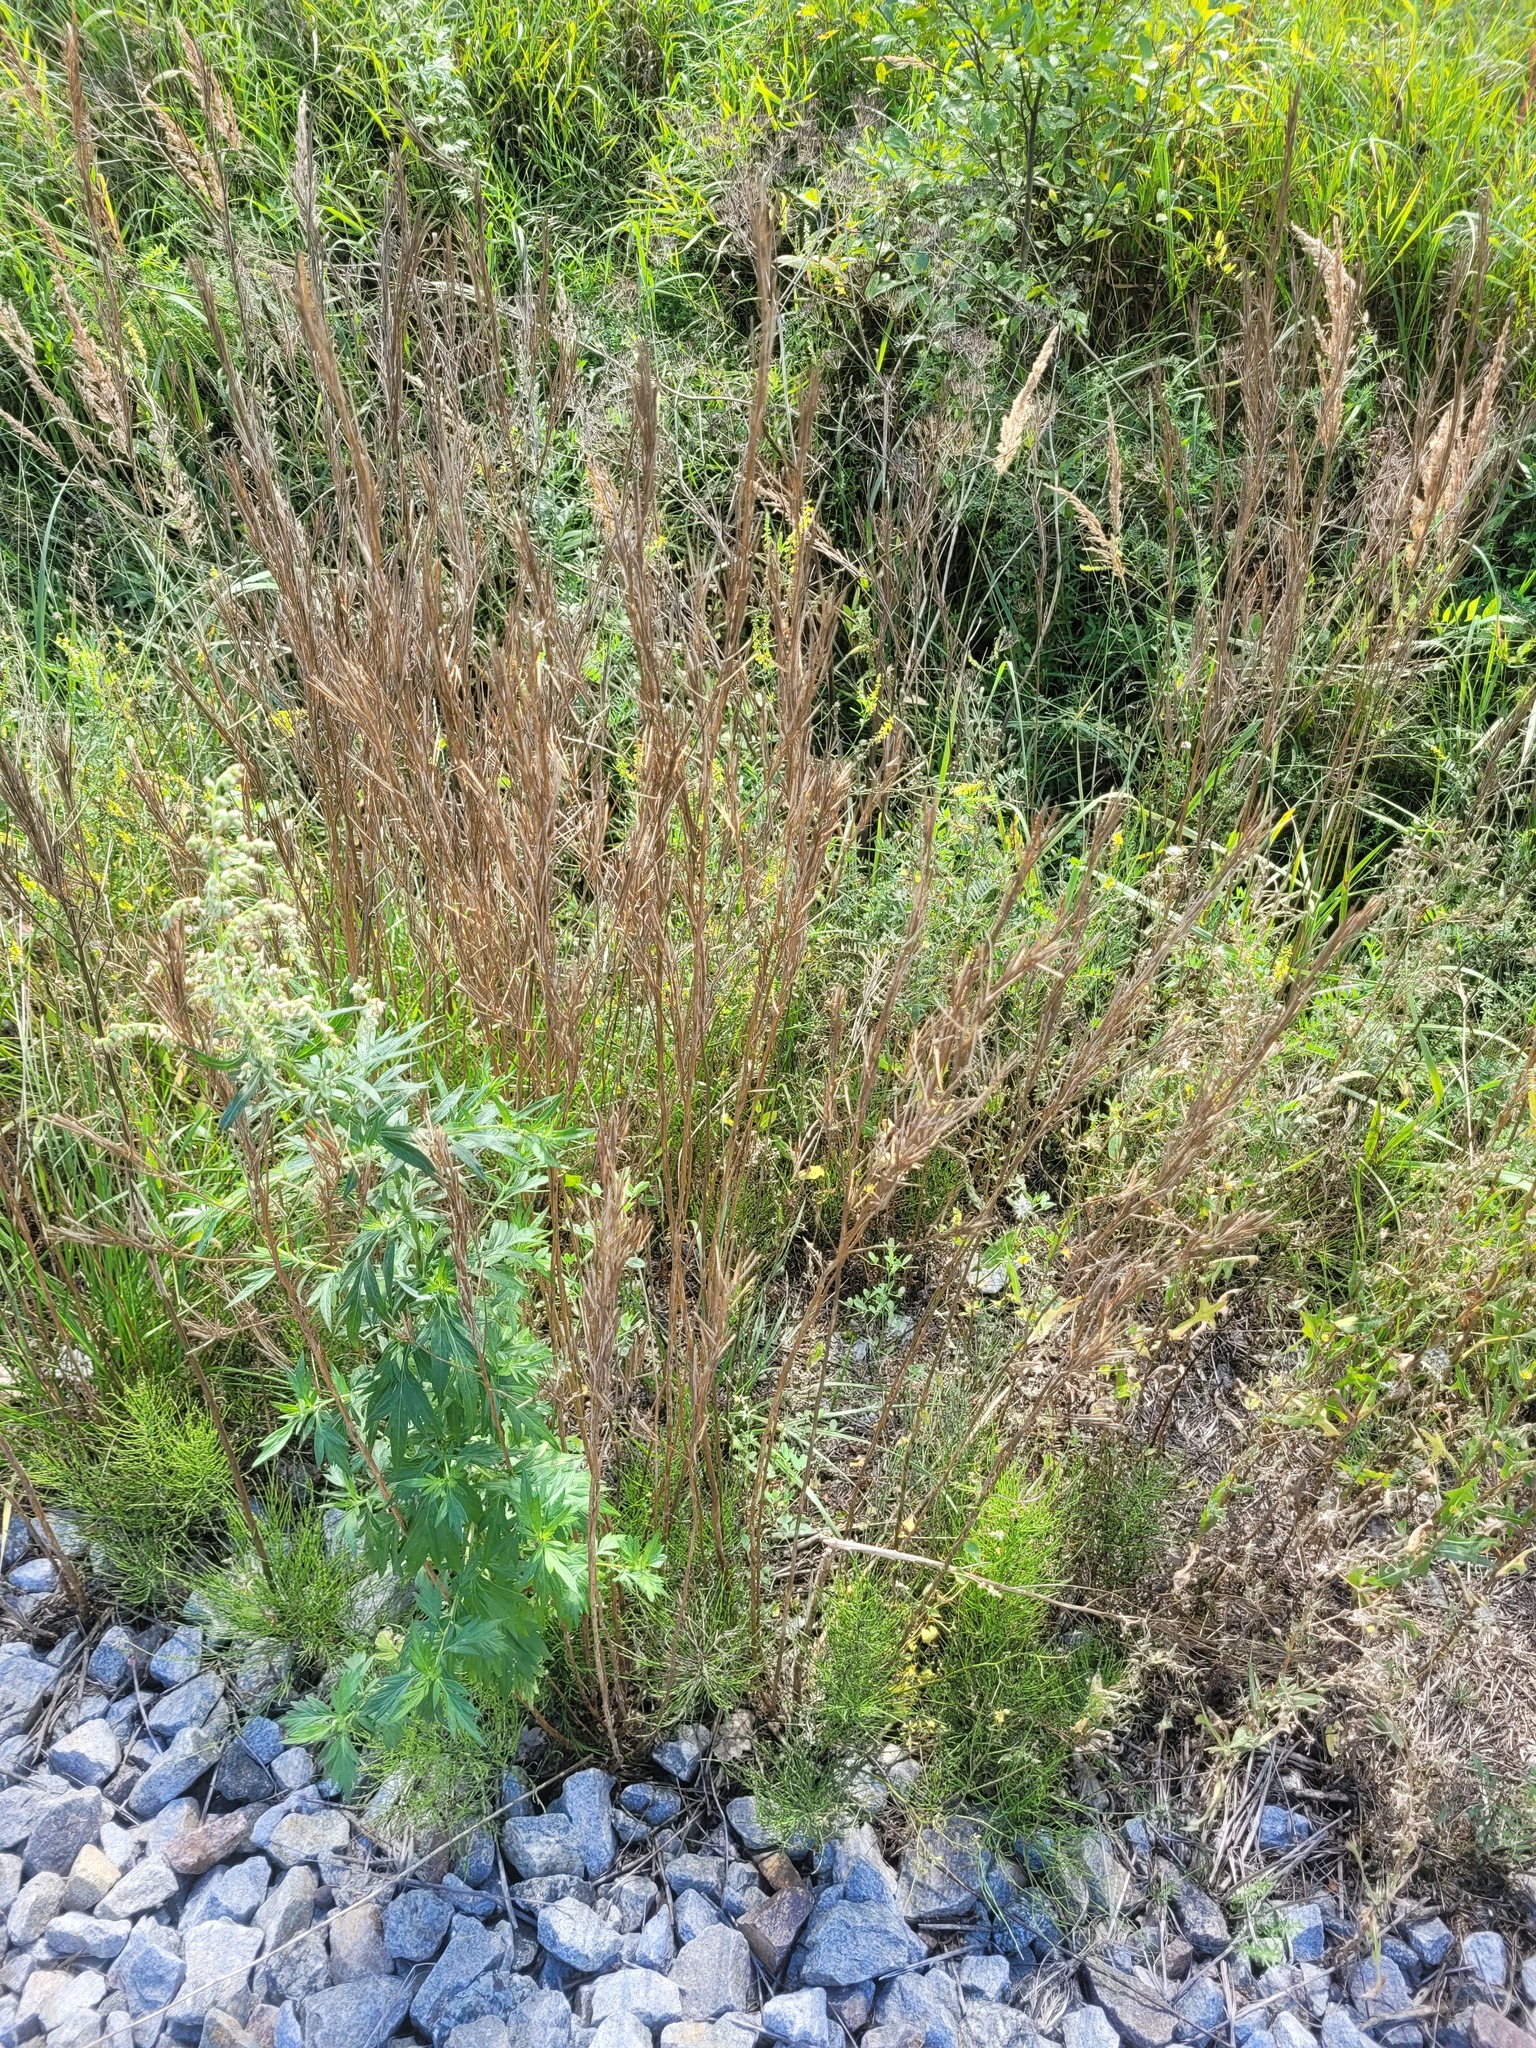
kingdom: Plantae
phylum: Tracheophyta
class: Magnoliopsida
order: Brassicales
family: Brassicaceae
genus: Erysimum
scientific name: Erysimum hieraciifolium
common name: European wallflower
